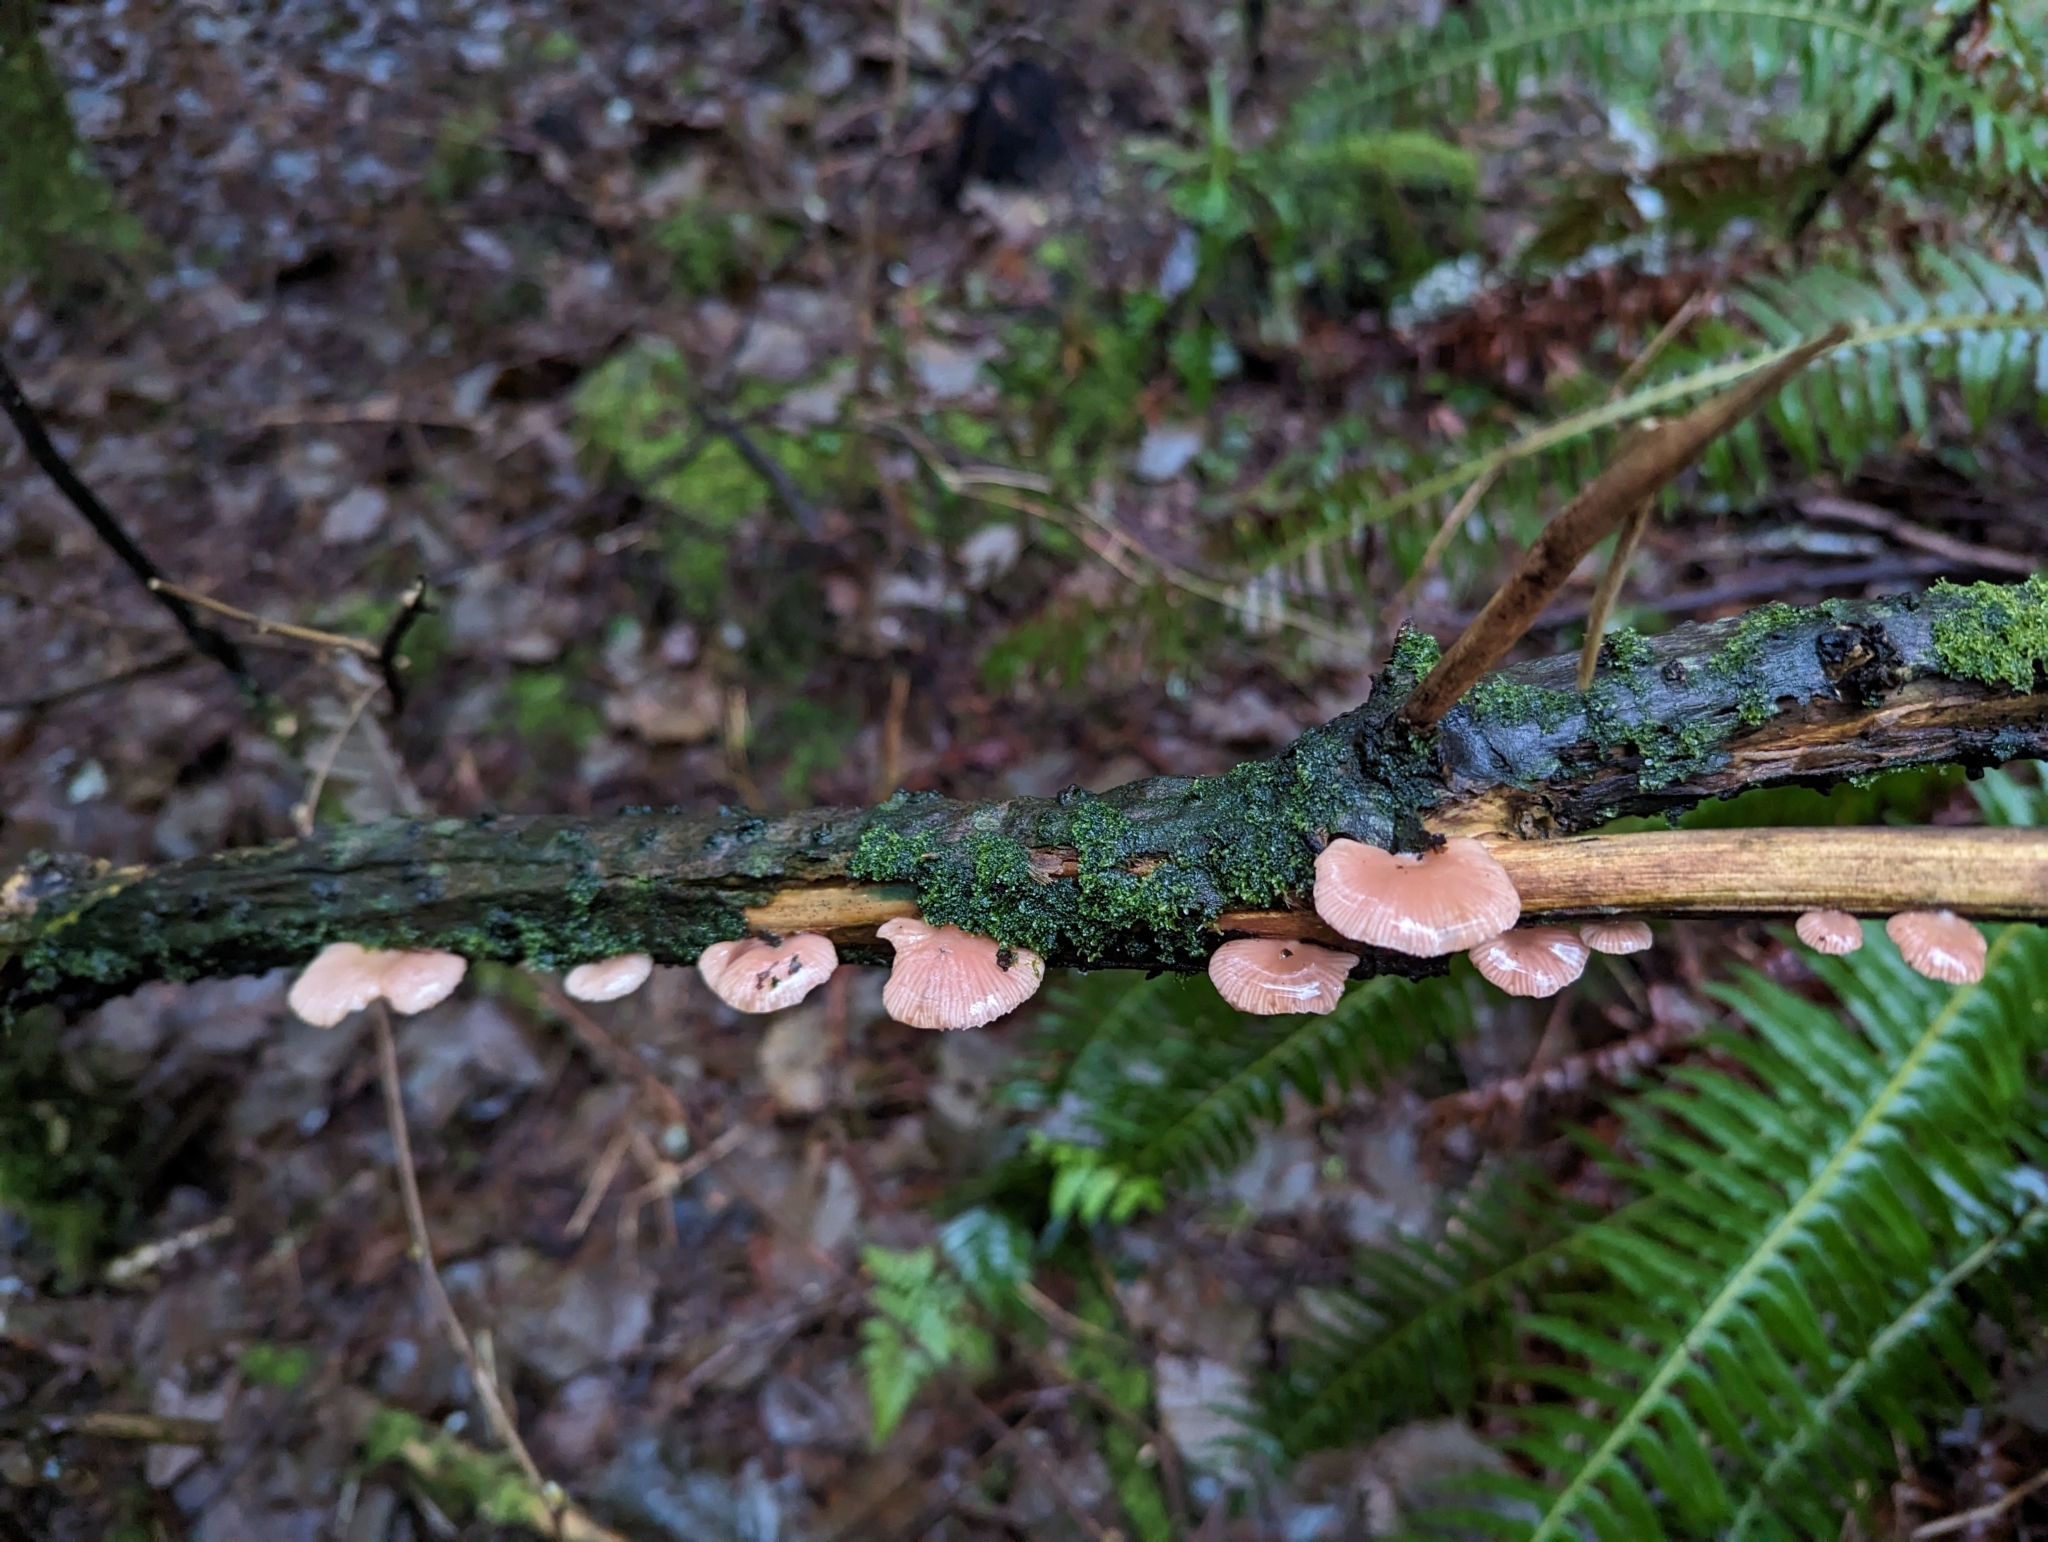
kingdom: Fungi
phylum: Basidiomycota
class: Agaricomycetes
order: Agaricales
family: Mycenaceae
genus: Panellus
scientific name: Panellus longinquus
